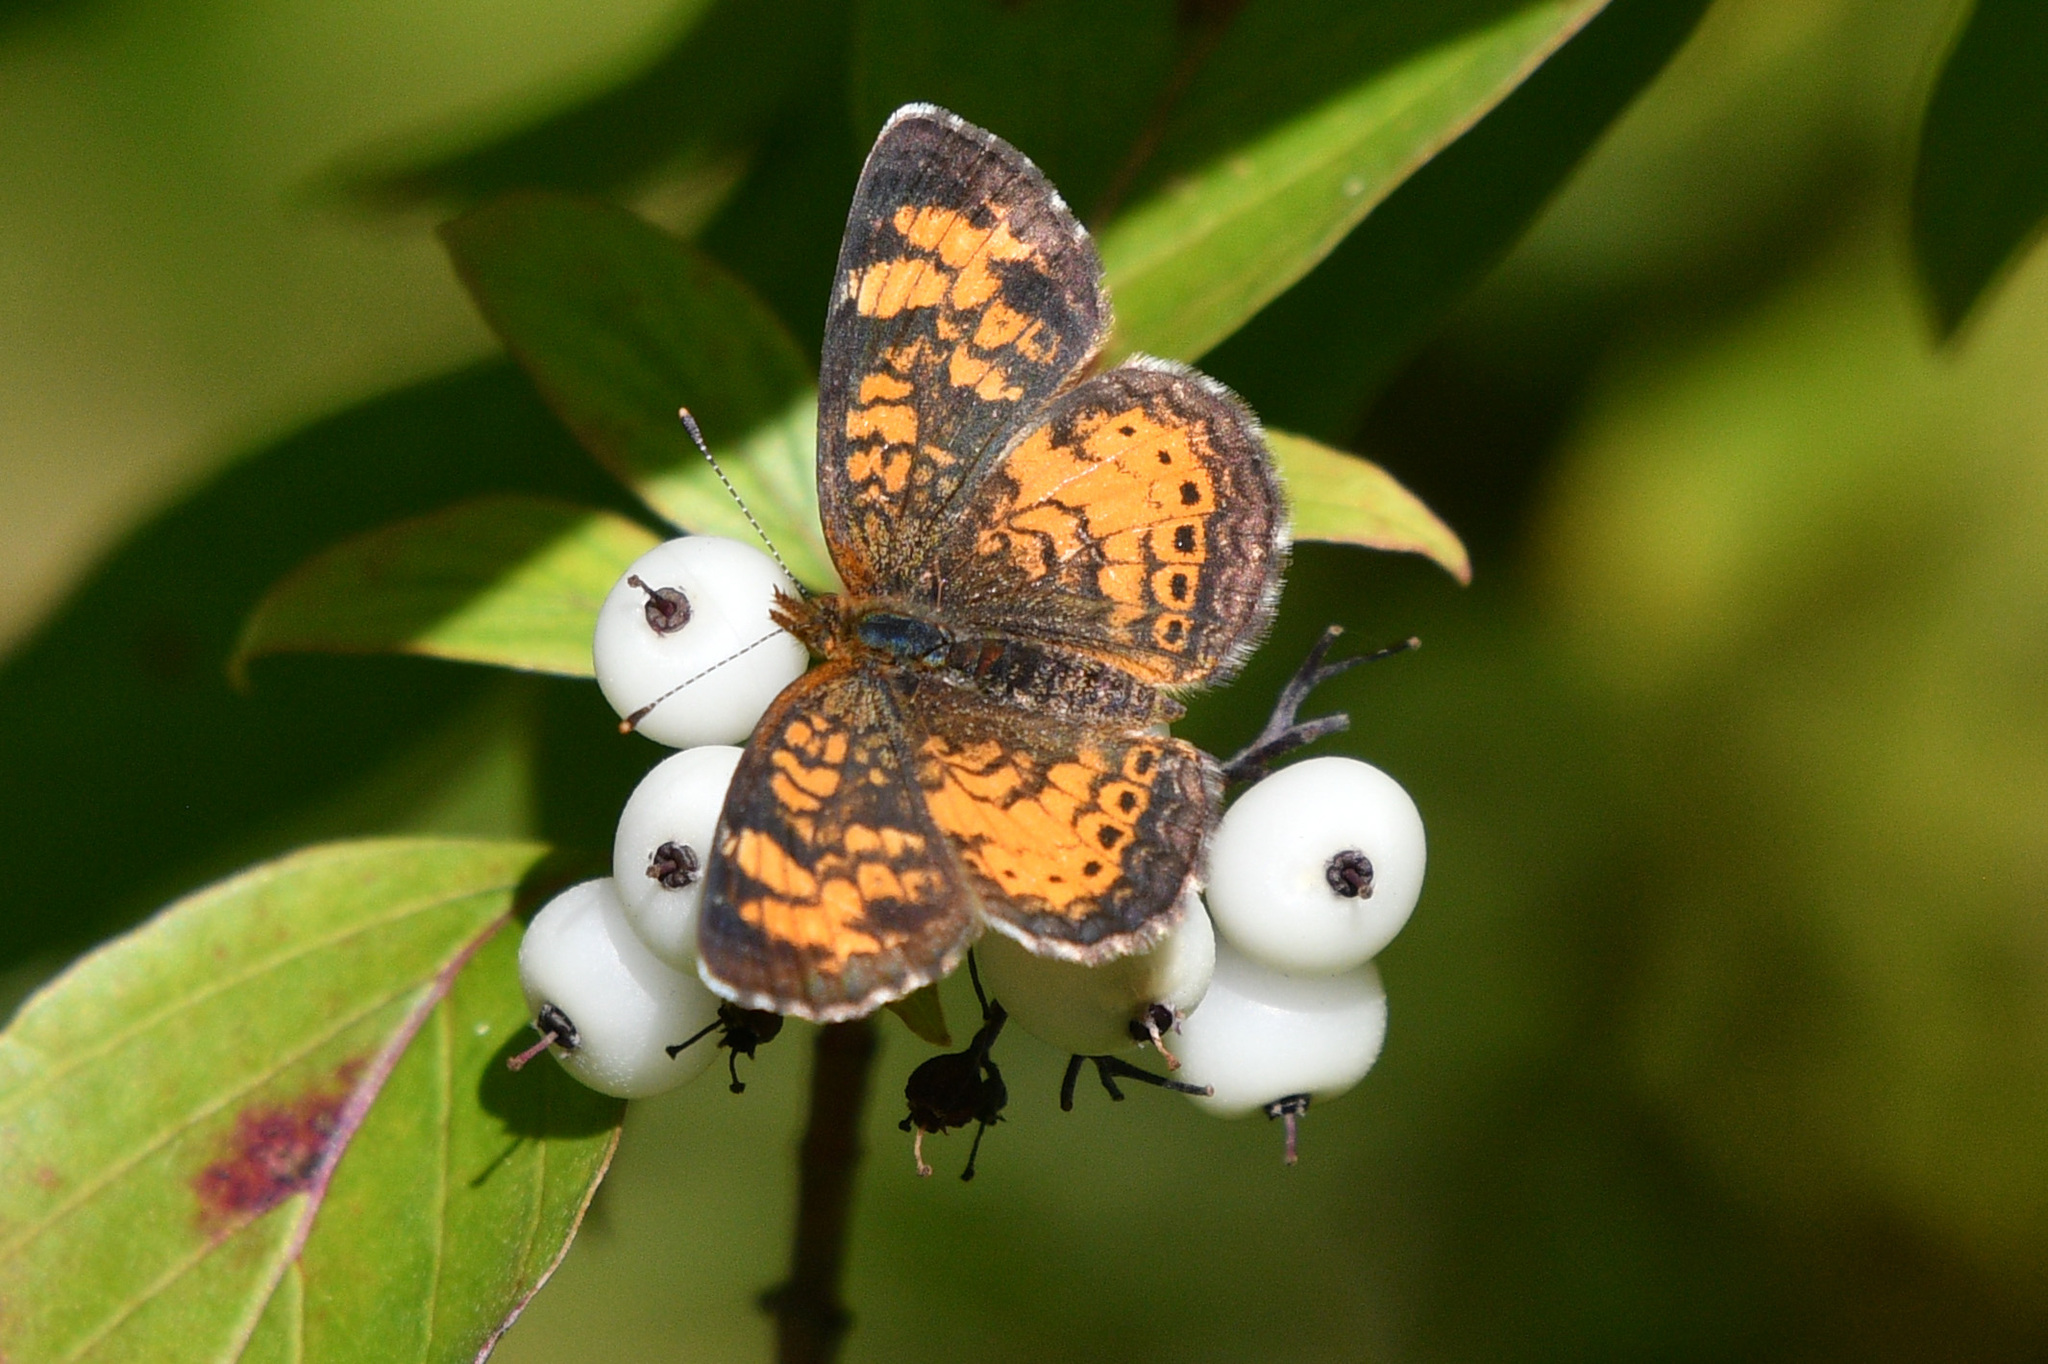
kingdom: Animalia
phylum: Arthropoda
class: Insecta
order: Lepidoptera
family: Nymphalidae
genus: Phyciodes
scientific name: Phyciodes tharos
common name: Pearl crescent
